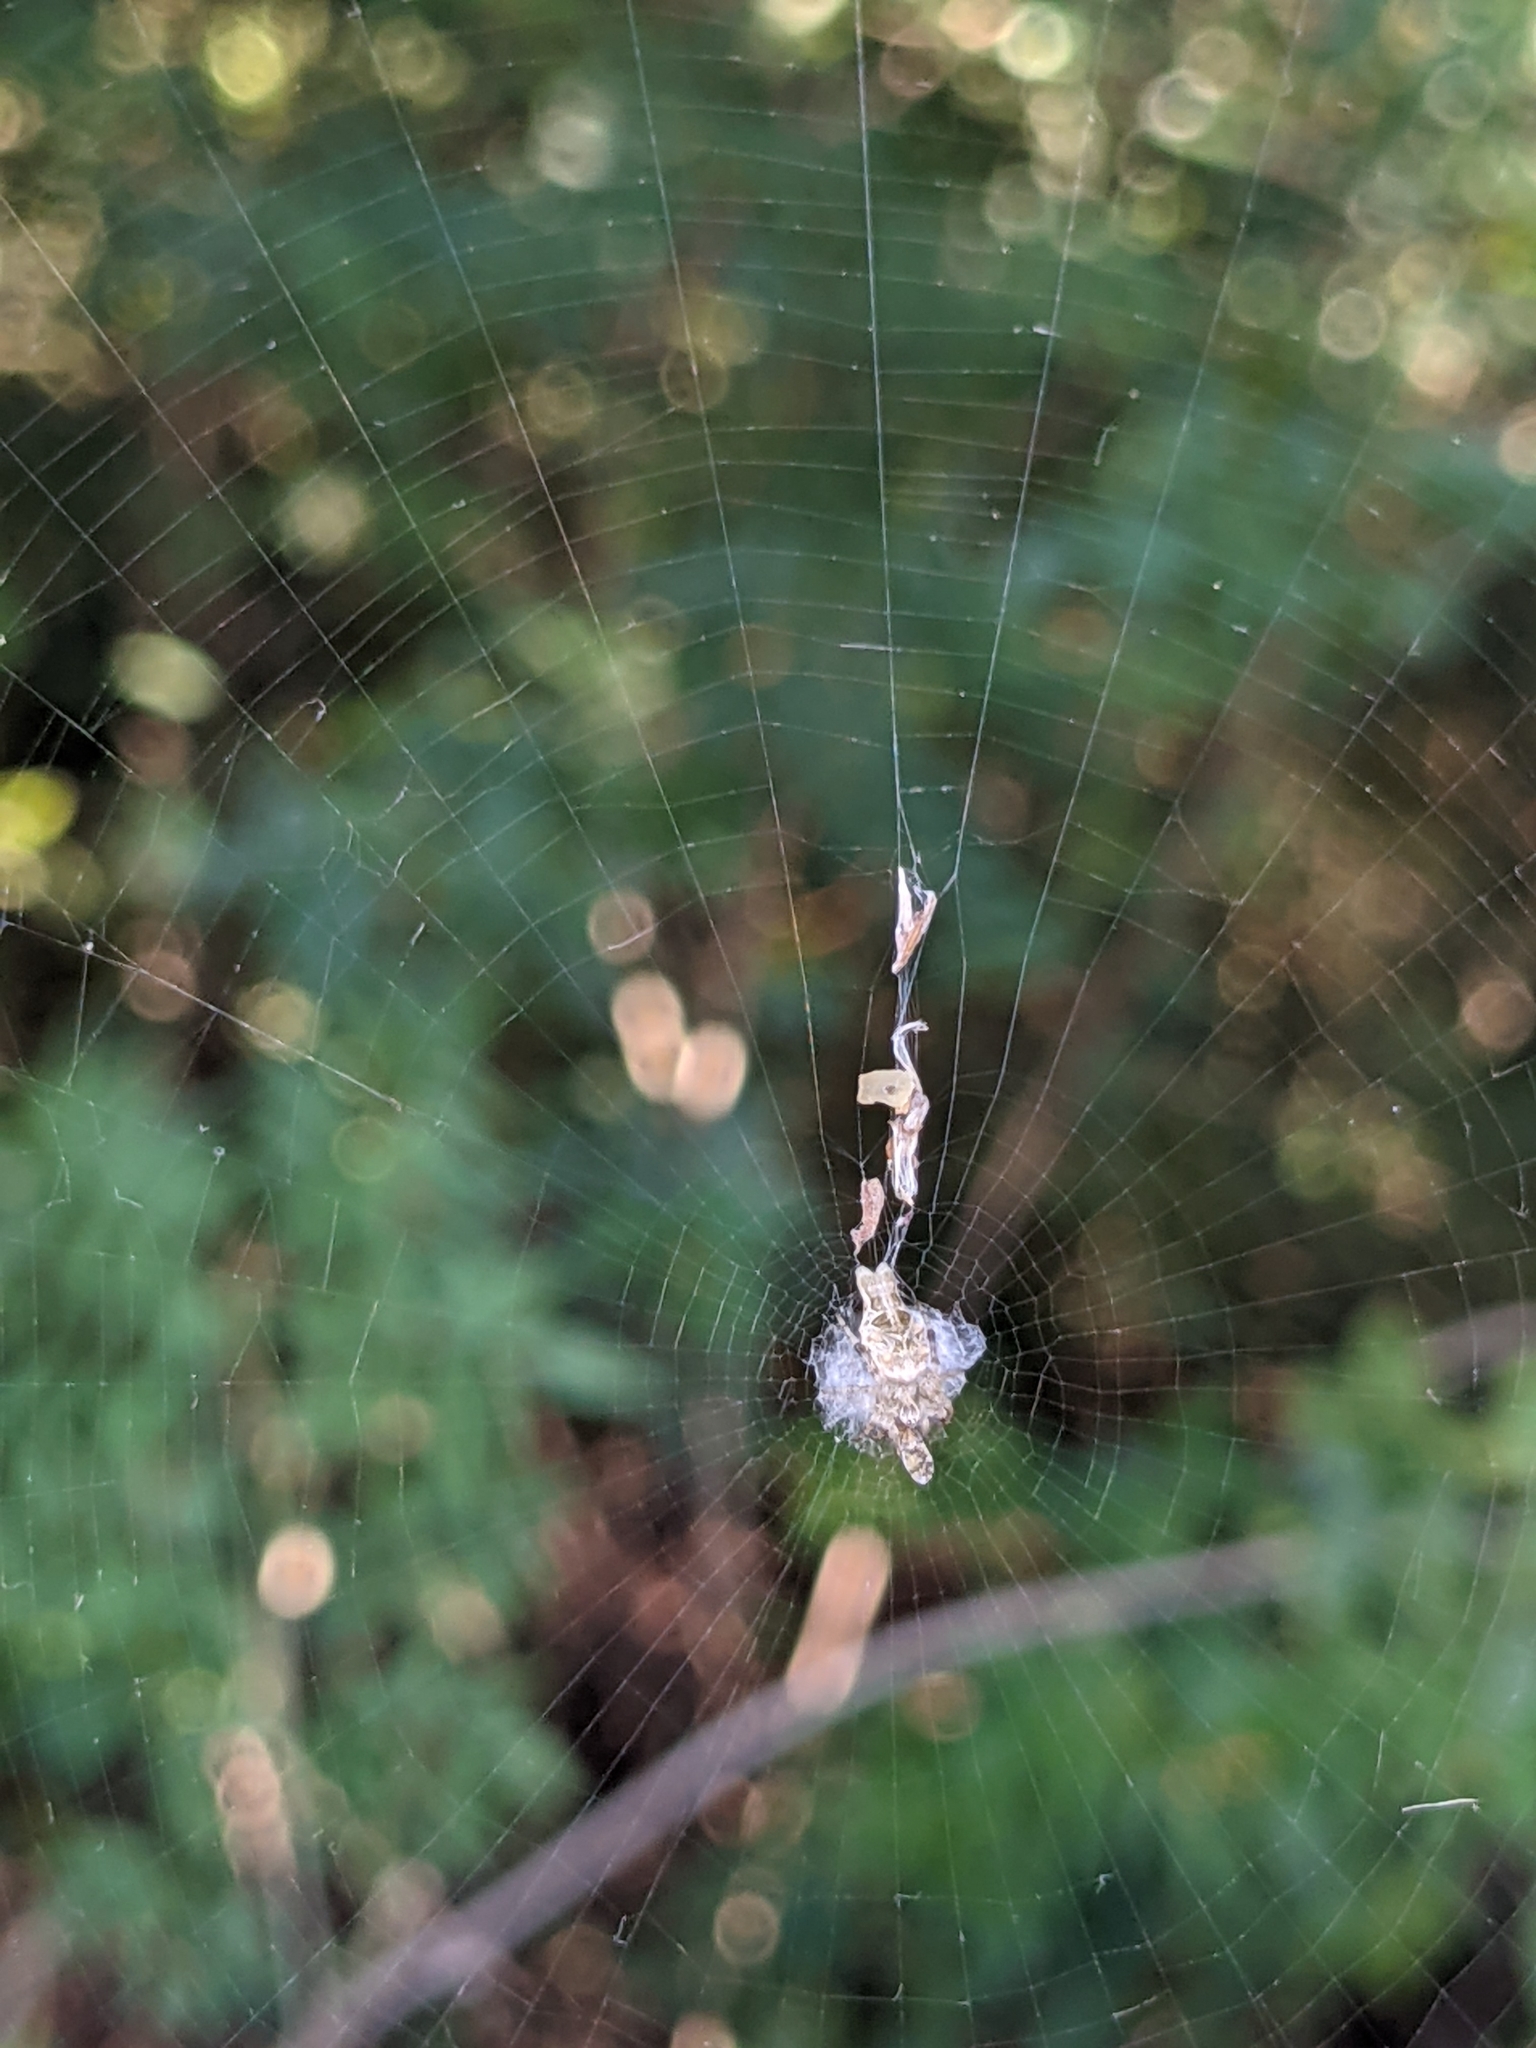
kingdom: Animalia
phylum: Arthropoda
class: Arachnida
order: Araneae
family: Araneidae
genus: Allocyclosa
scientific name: Allocyclosa bifurca
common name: Orb weavers
